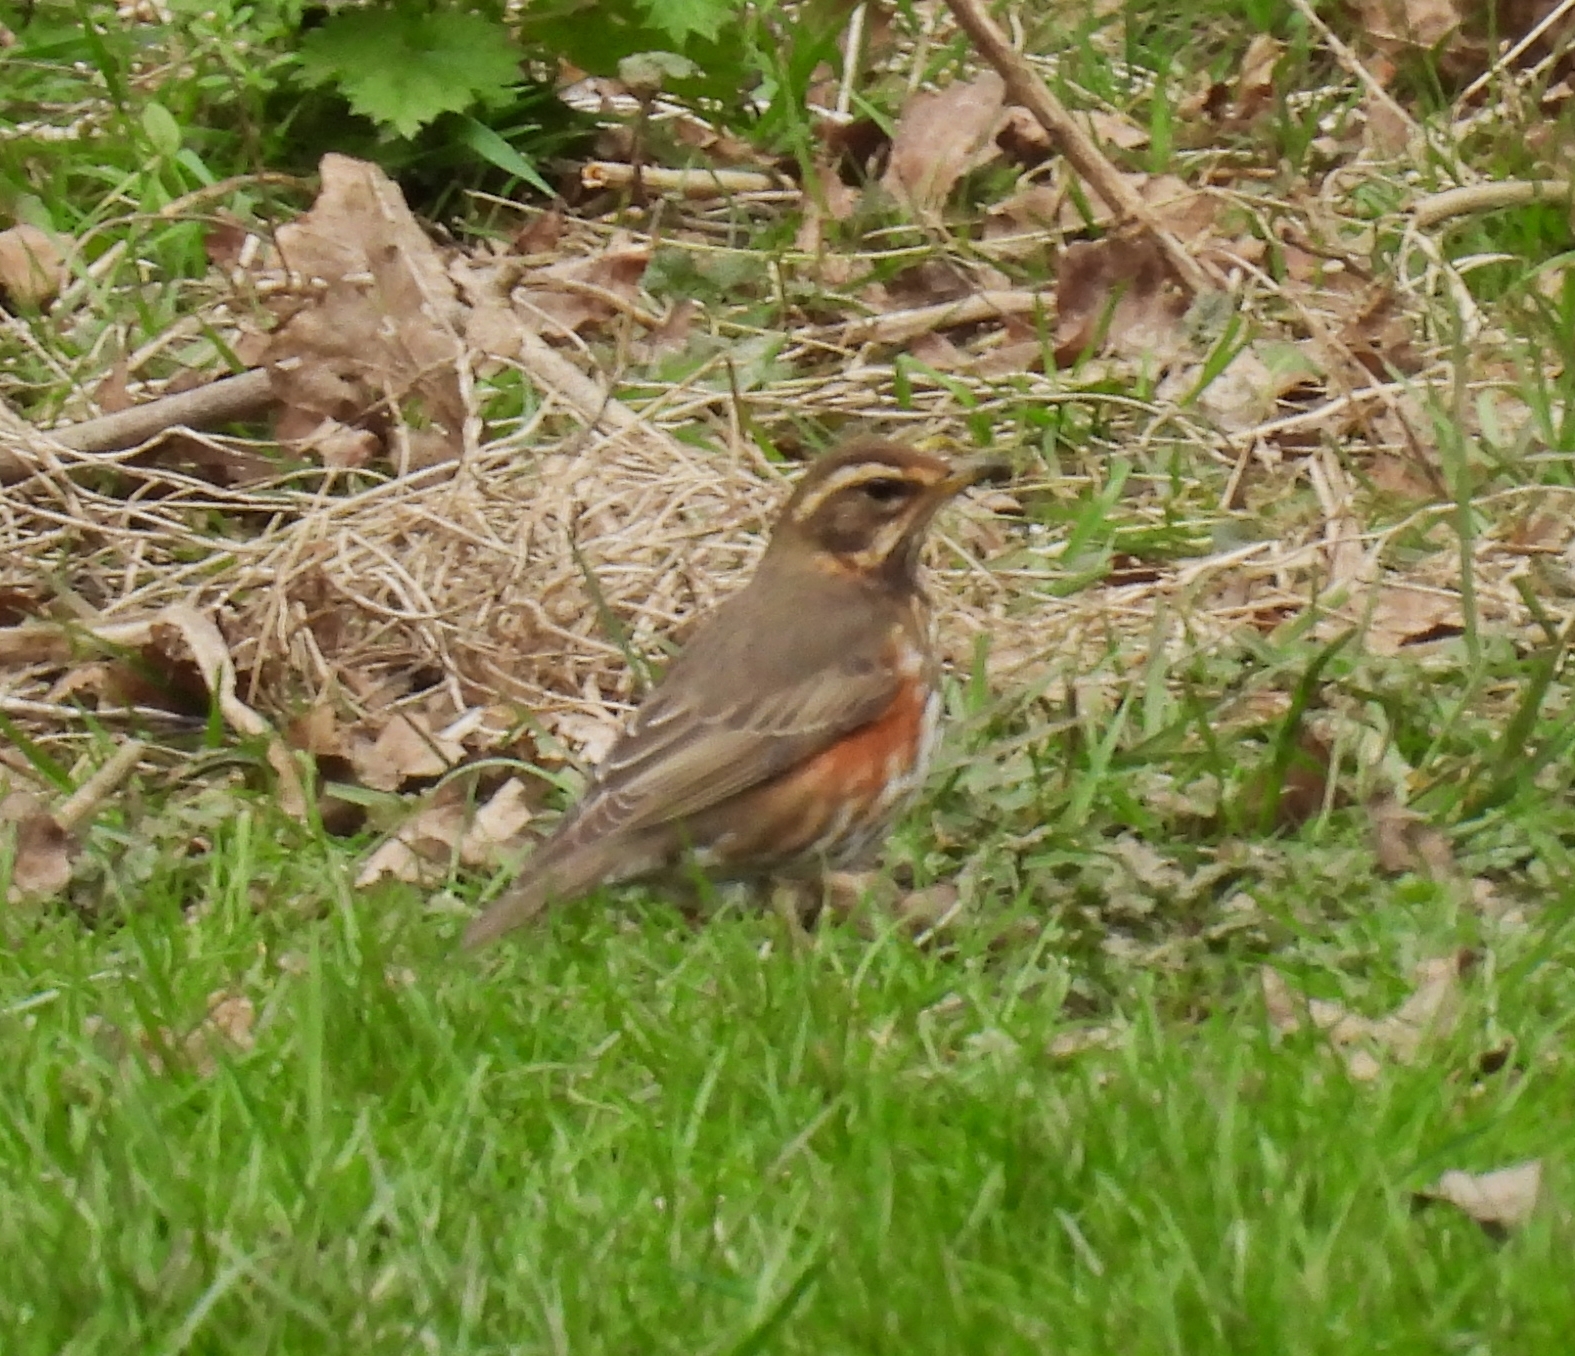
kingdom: Animalia
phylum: Chordata
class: Aves
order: Passeriformes
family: Turdidae
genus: Turdus
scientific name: Turdus iliacus
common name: Redwing
